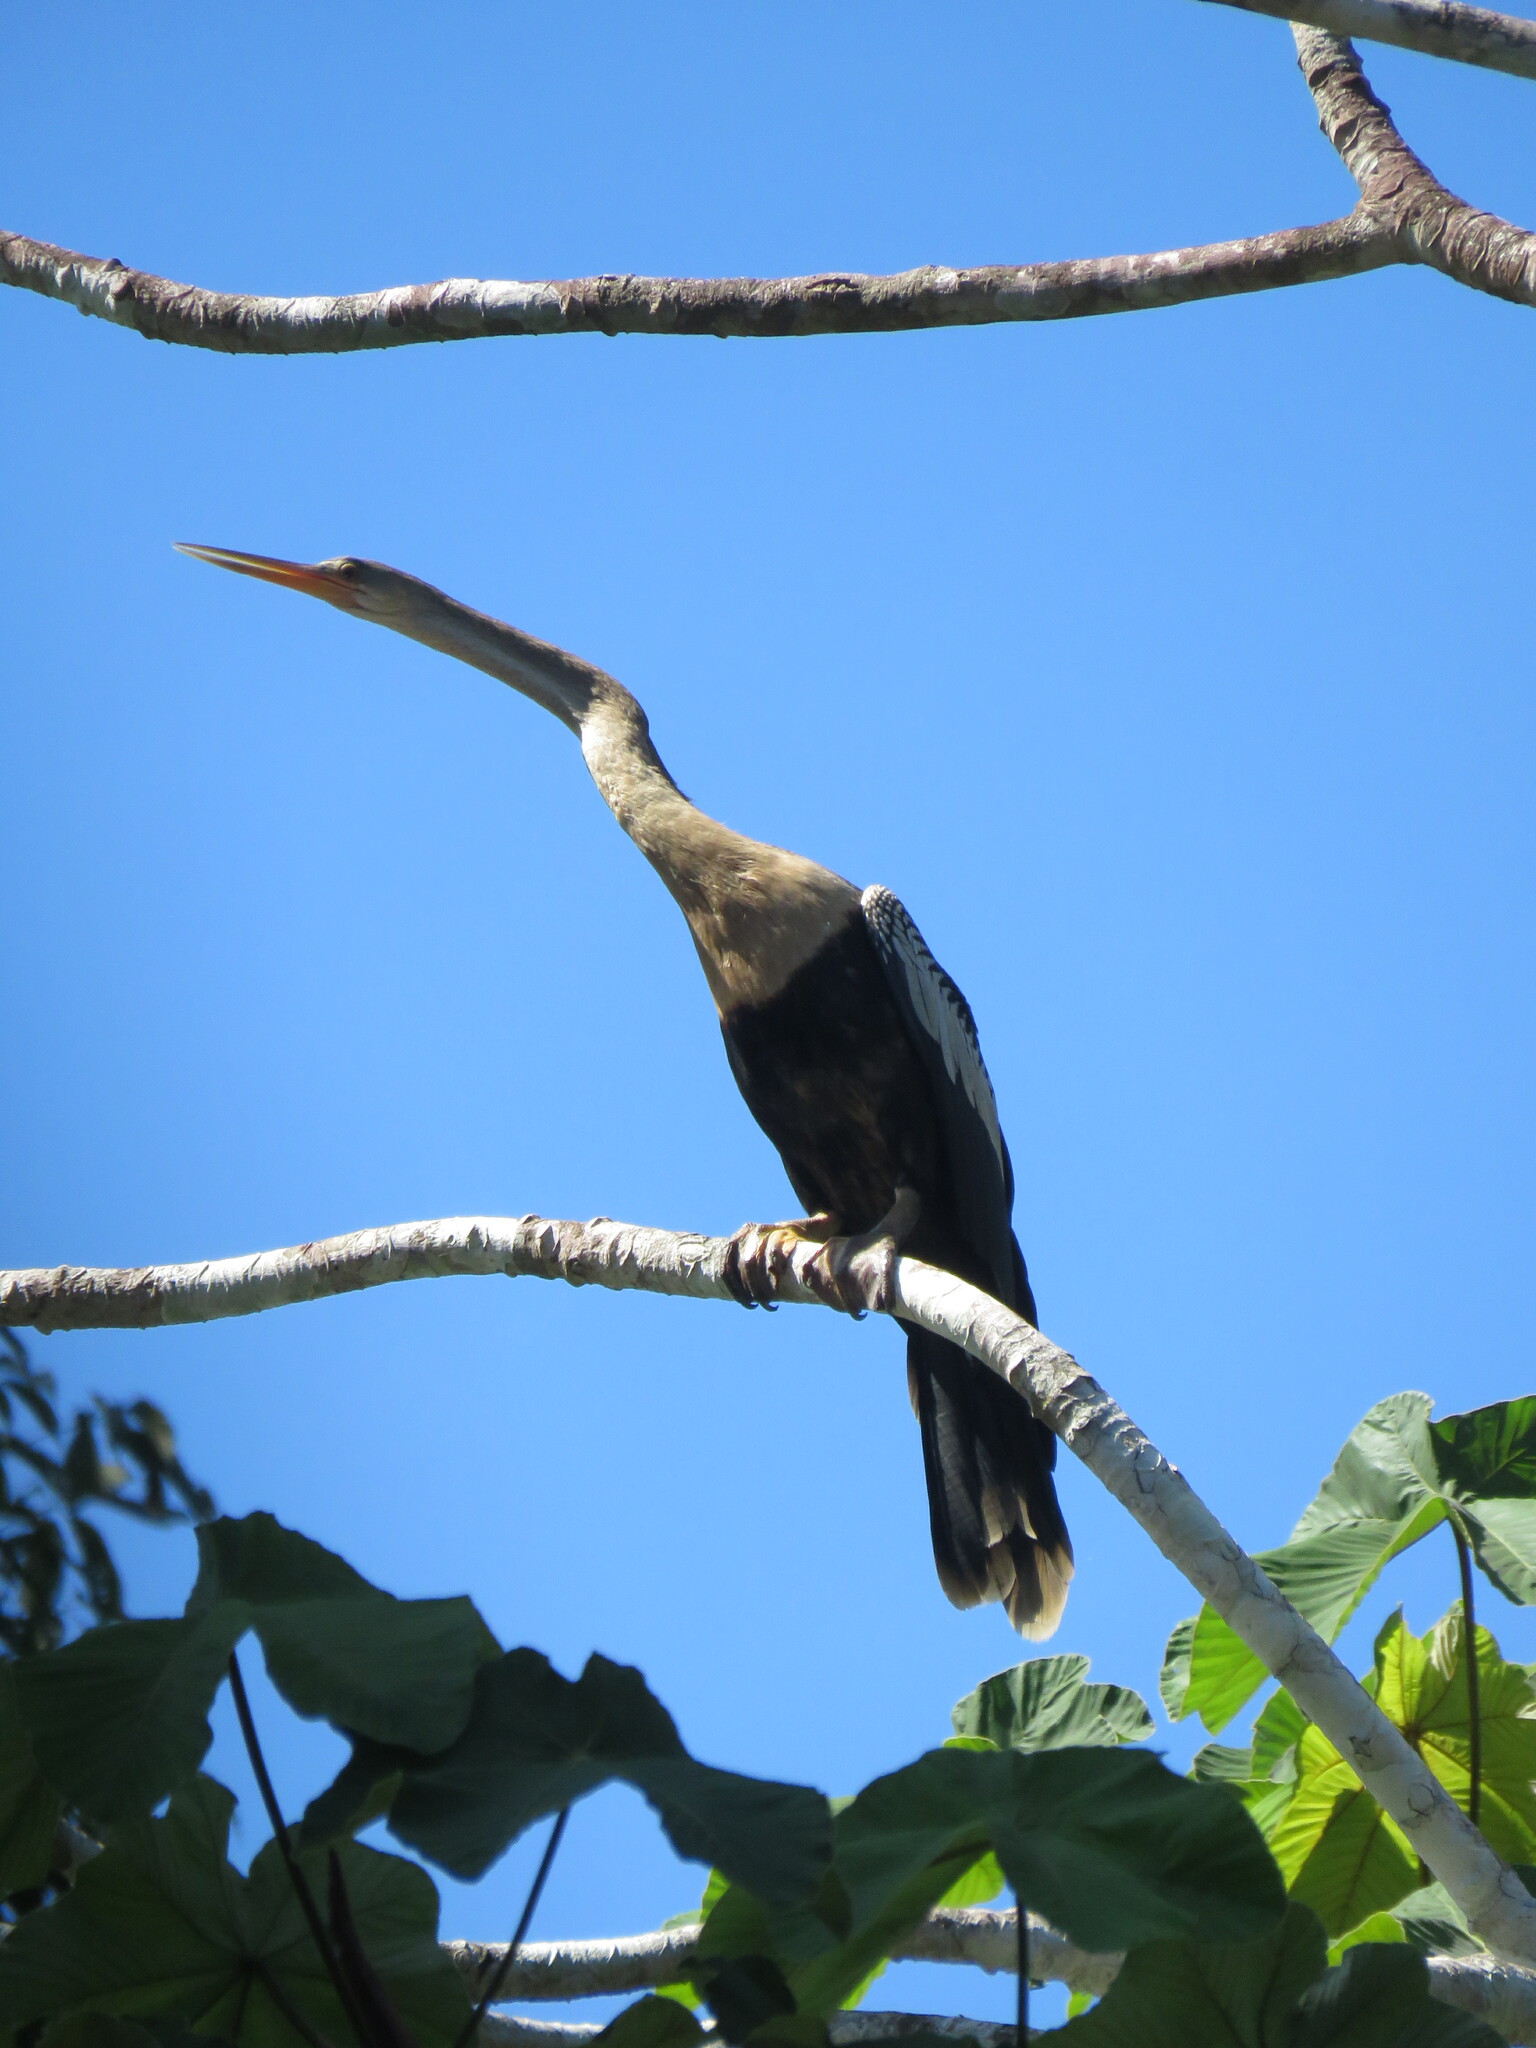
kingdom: Animalia
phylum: Chordata
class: Aves
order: Suliformes
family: Anhingidae
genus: Anhinga
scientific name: Anhinga anhinga
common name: Anhinga
